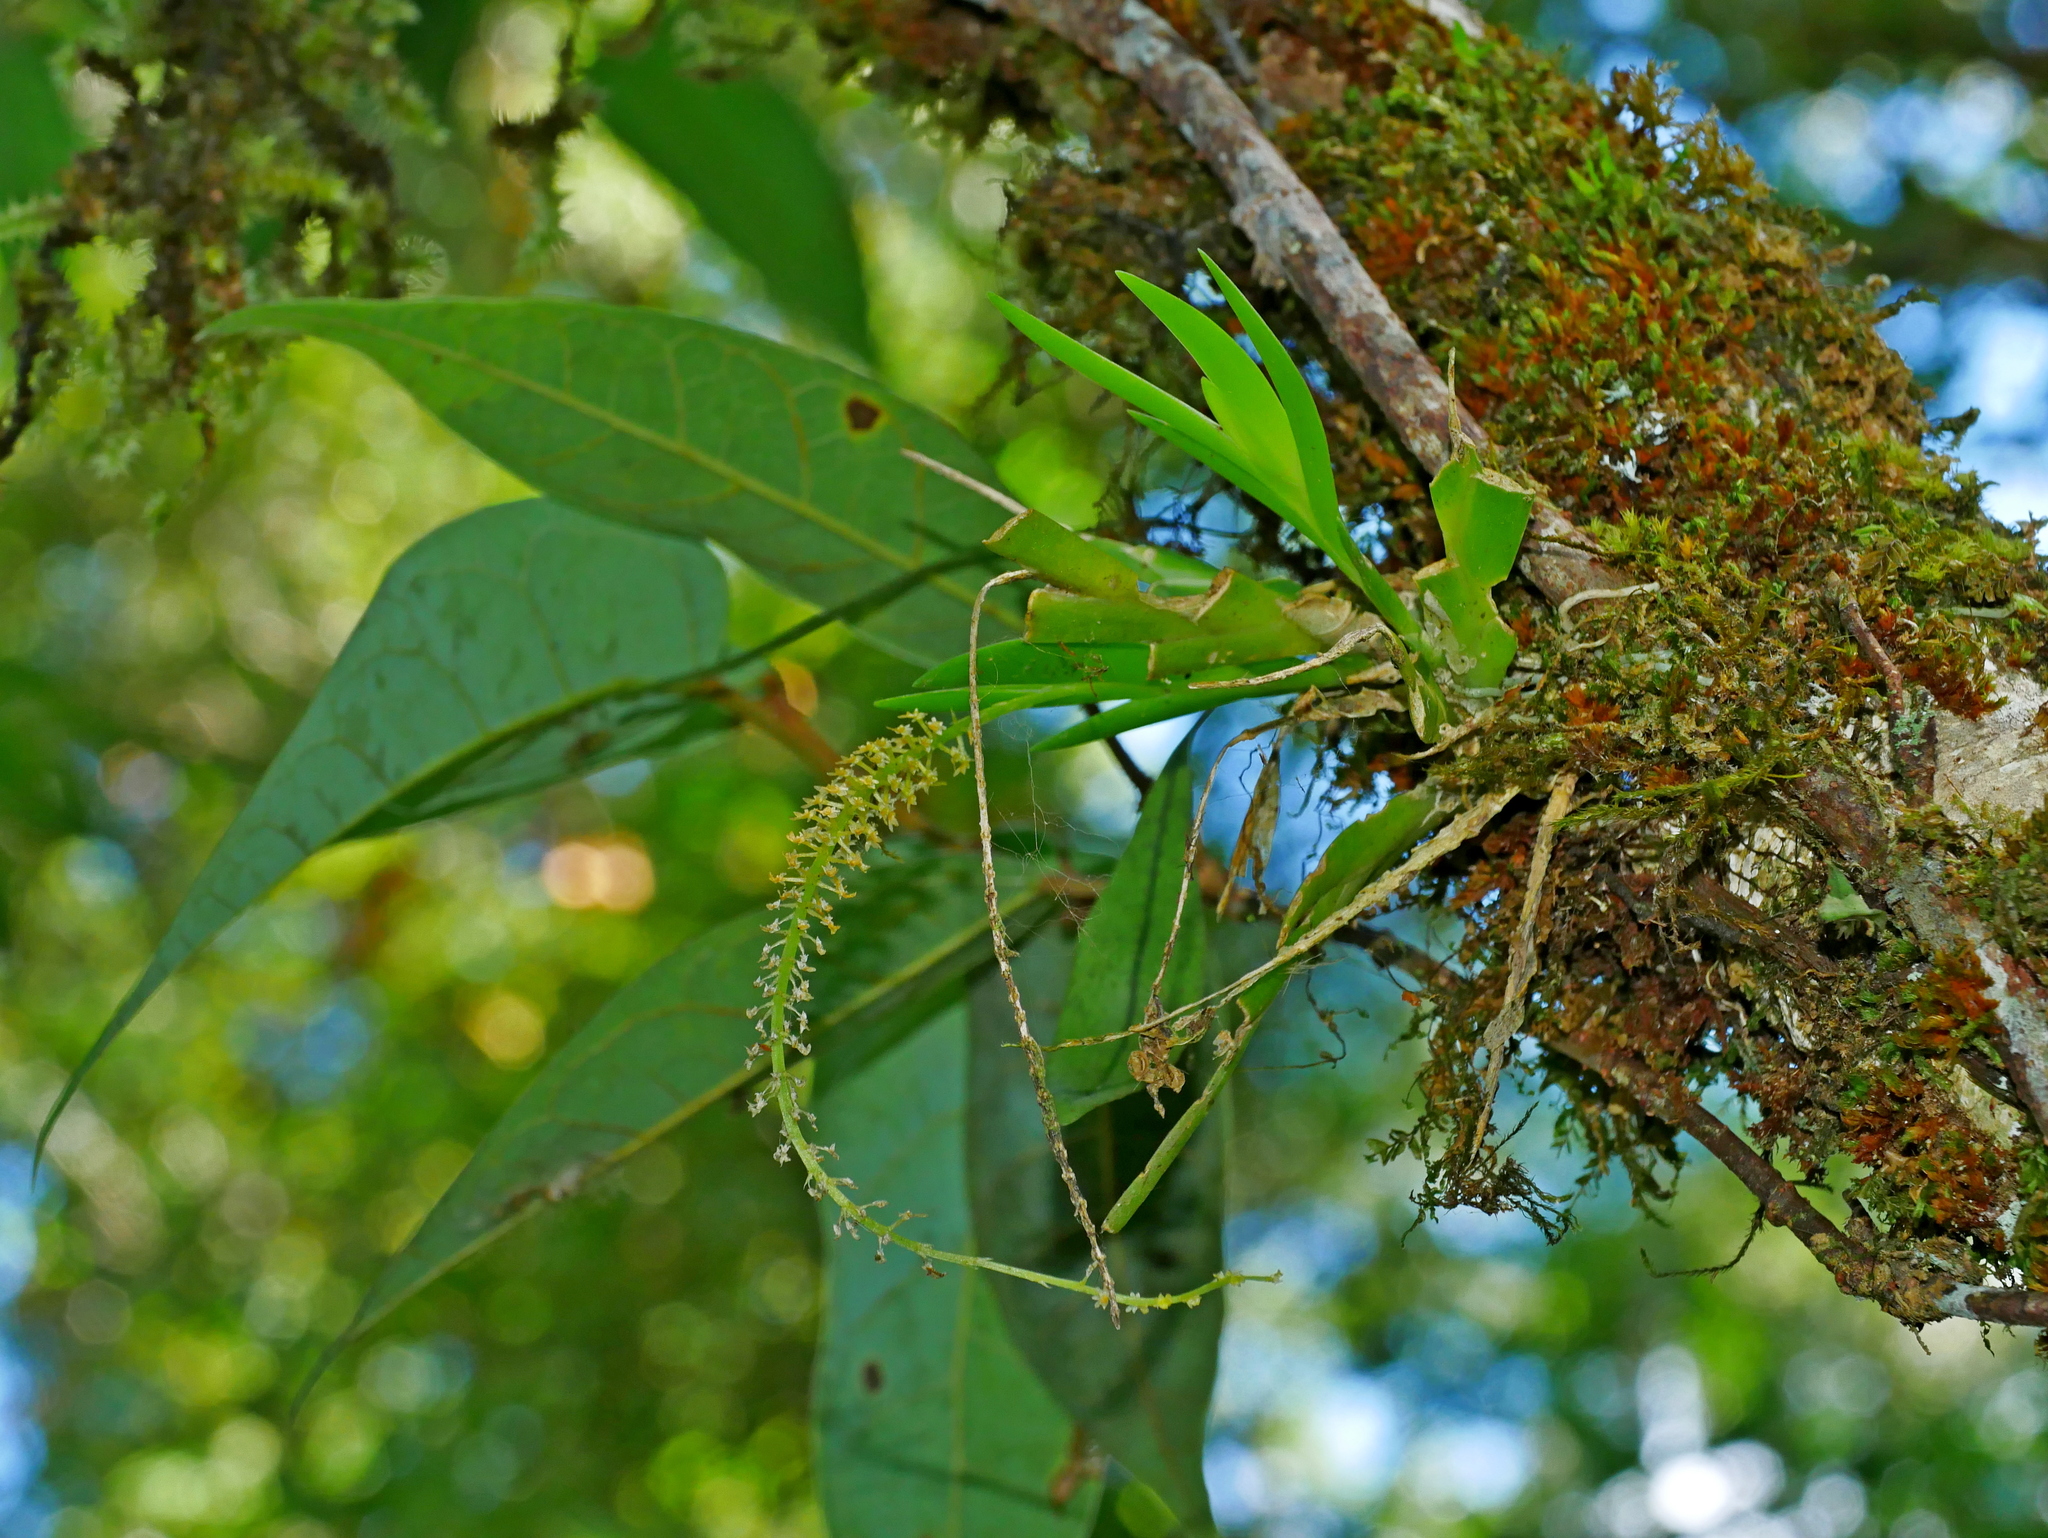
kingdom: Plantae
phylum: Tracheophyta
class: Liliopsida
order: Asparagales
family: Orchidaceae
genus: Oberonia
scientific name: Oberonia caulescens
